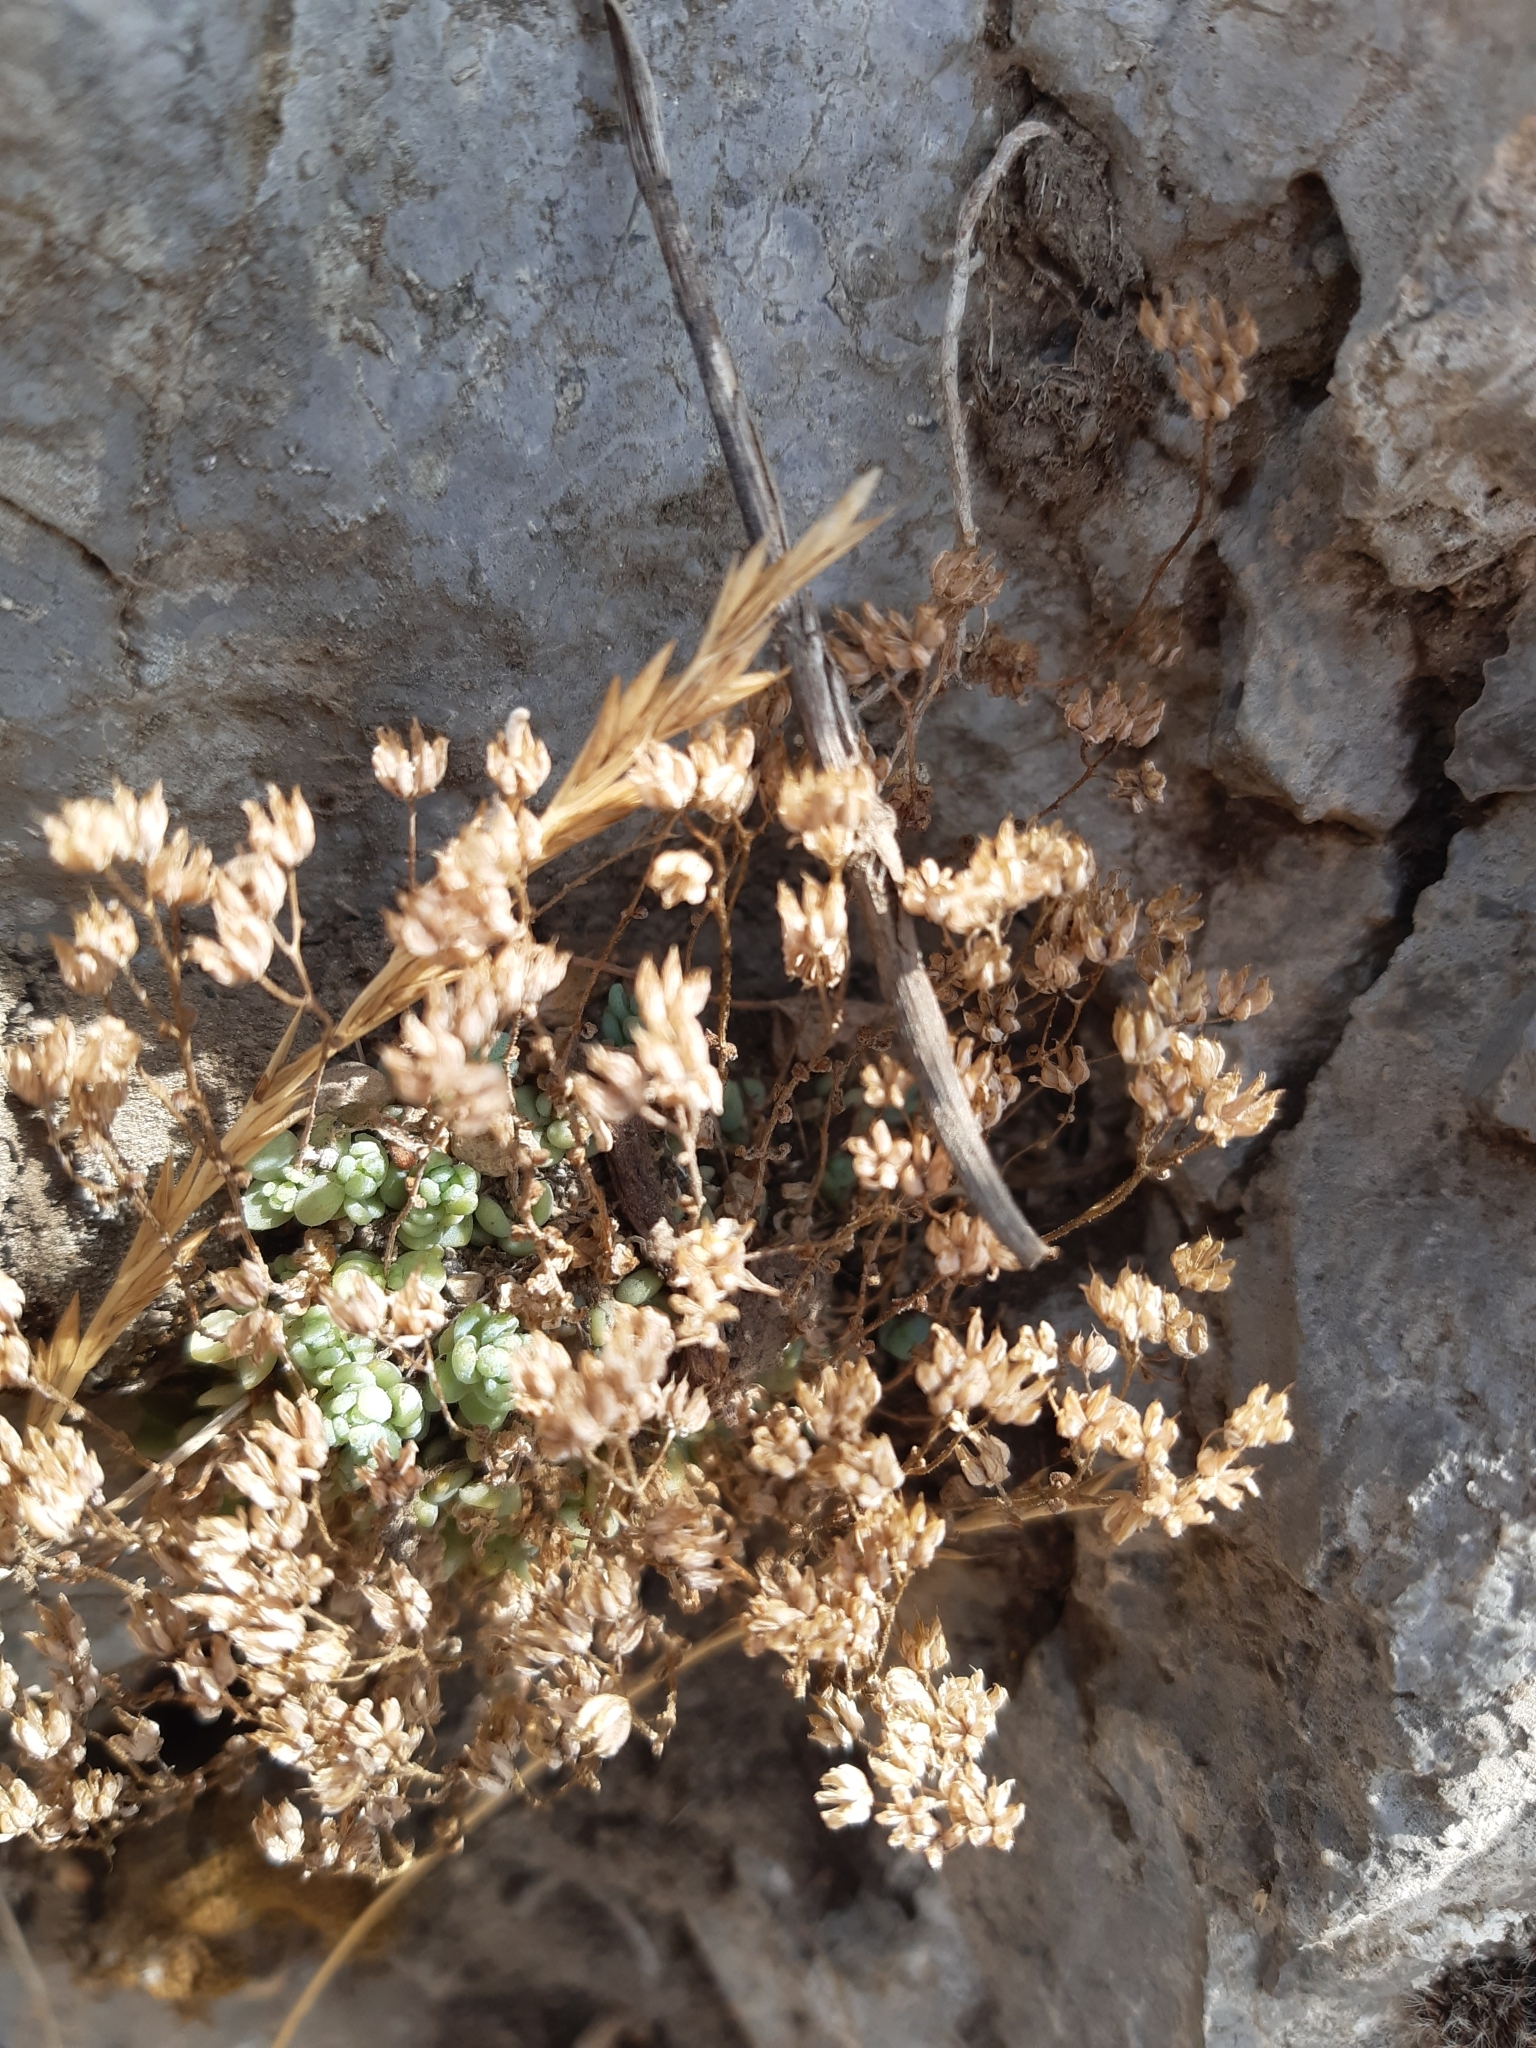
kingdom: Plantae
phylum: Tracheophyta
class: Magnoliopsida
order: Saxifragales
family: Crassulaceae
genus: Sedum
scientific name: Sedum dasyphyllum
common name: Thick-leaf stonecrop
